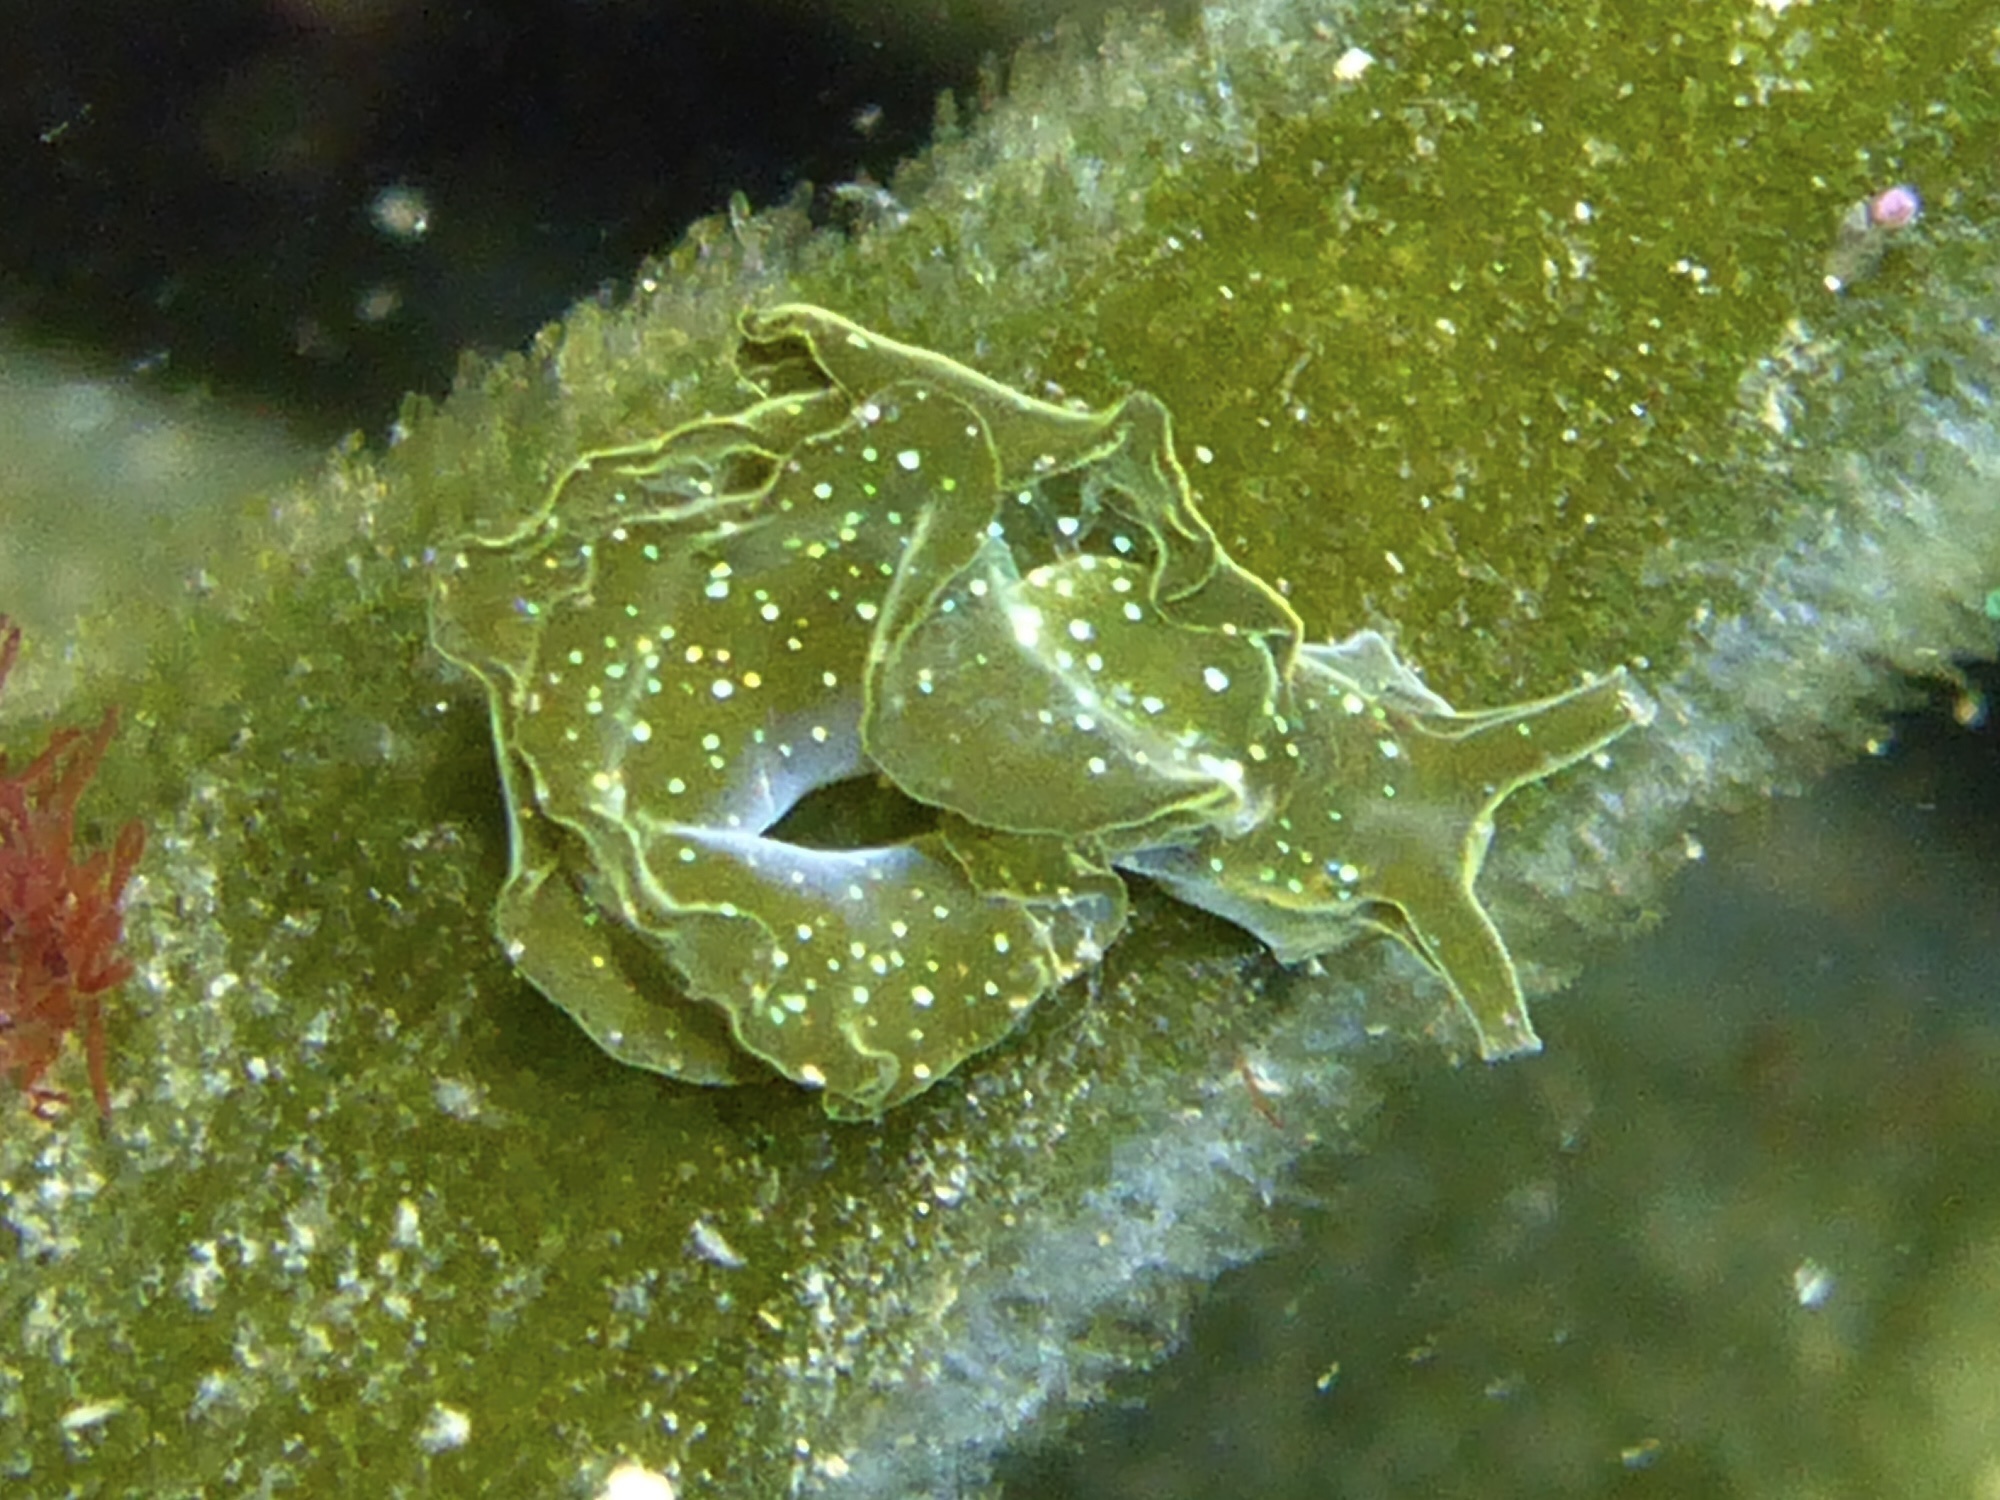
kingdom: Animalia
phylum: Mollusca
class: Gastropoda
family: Plakobranchidae
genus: Elysia
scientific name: Elysia hedgpethi
